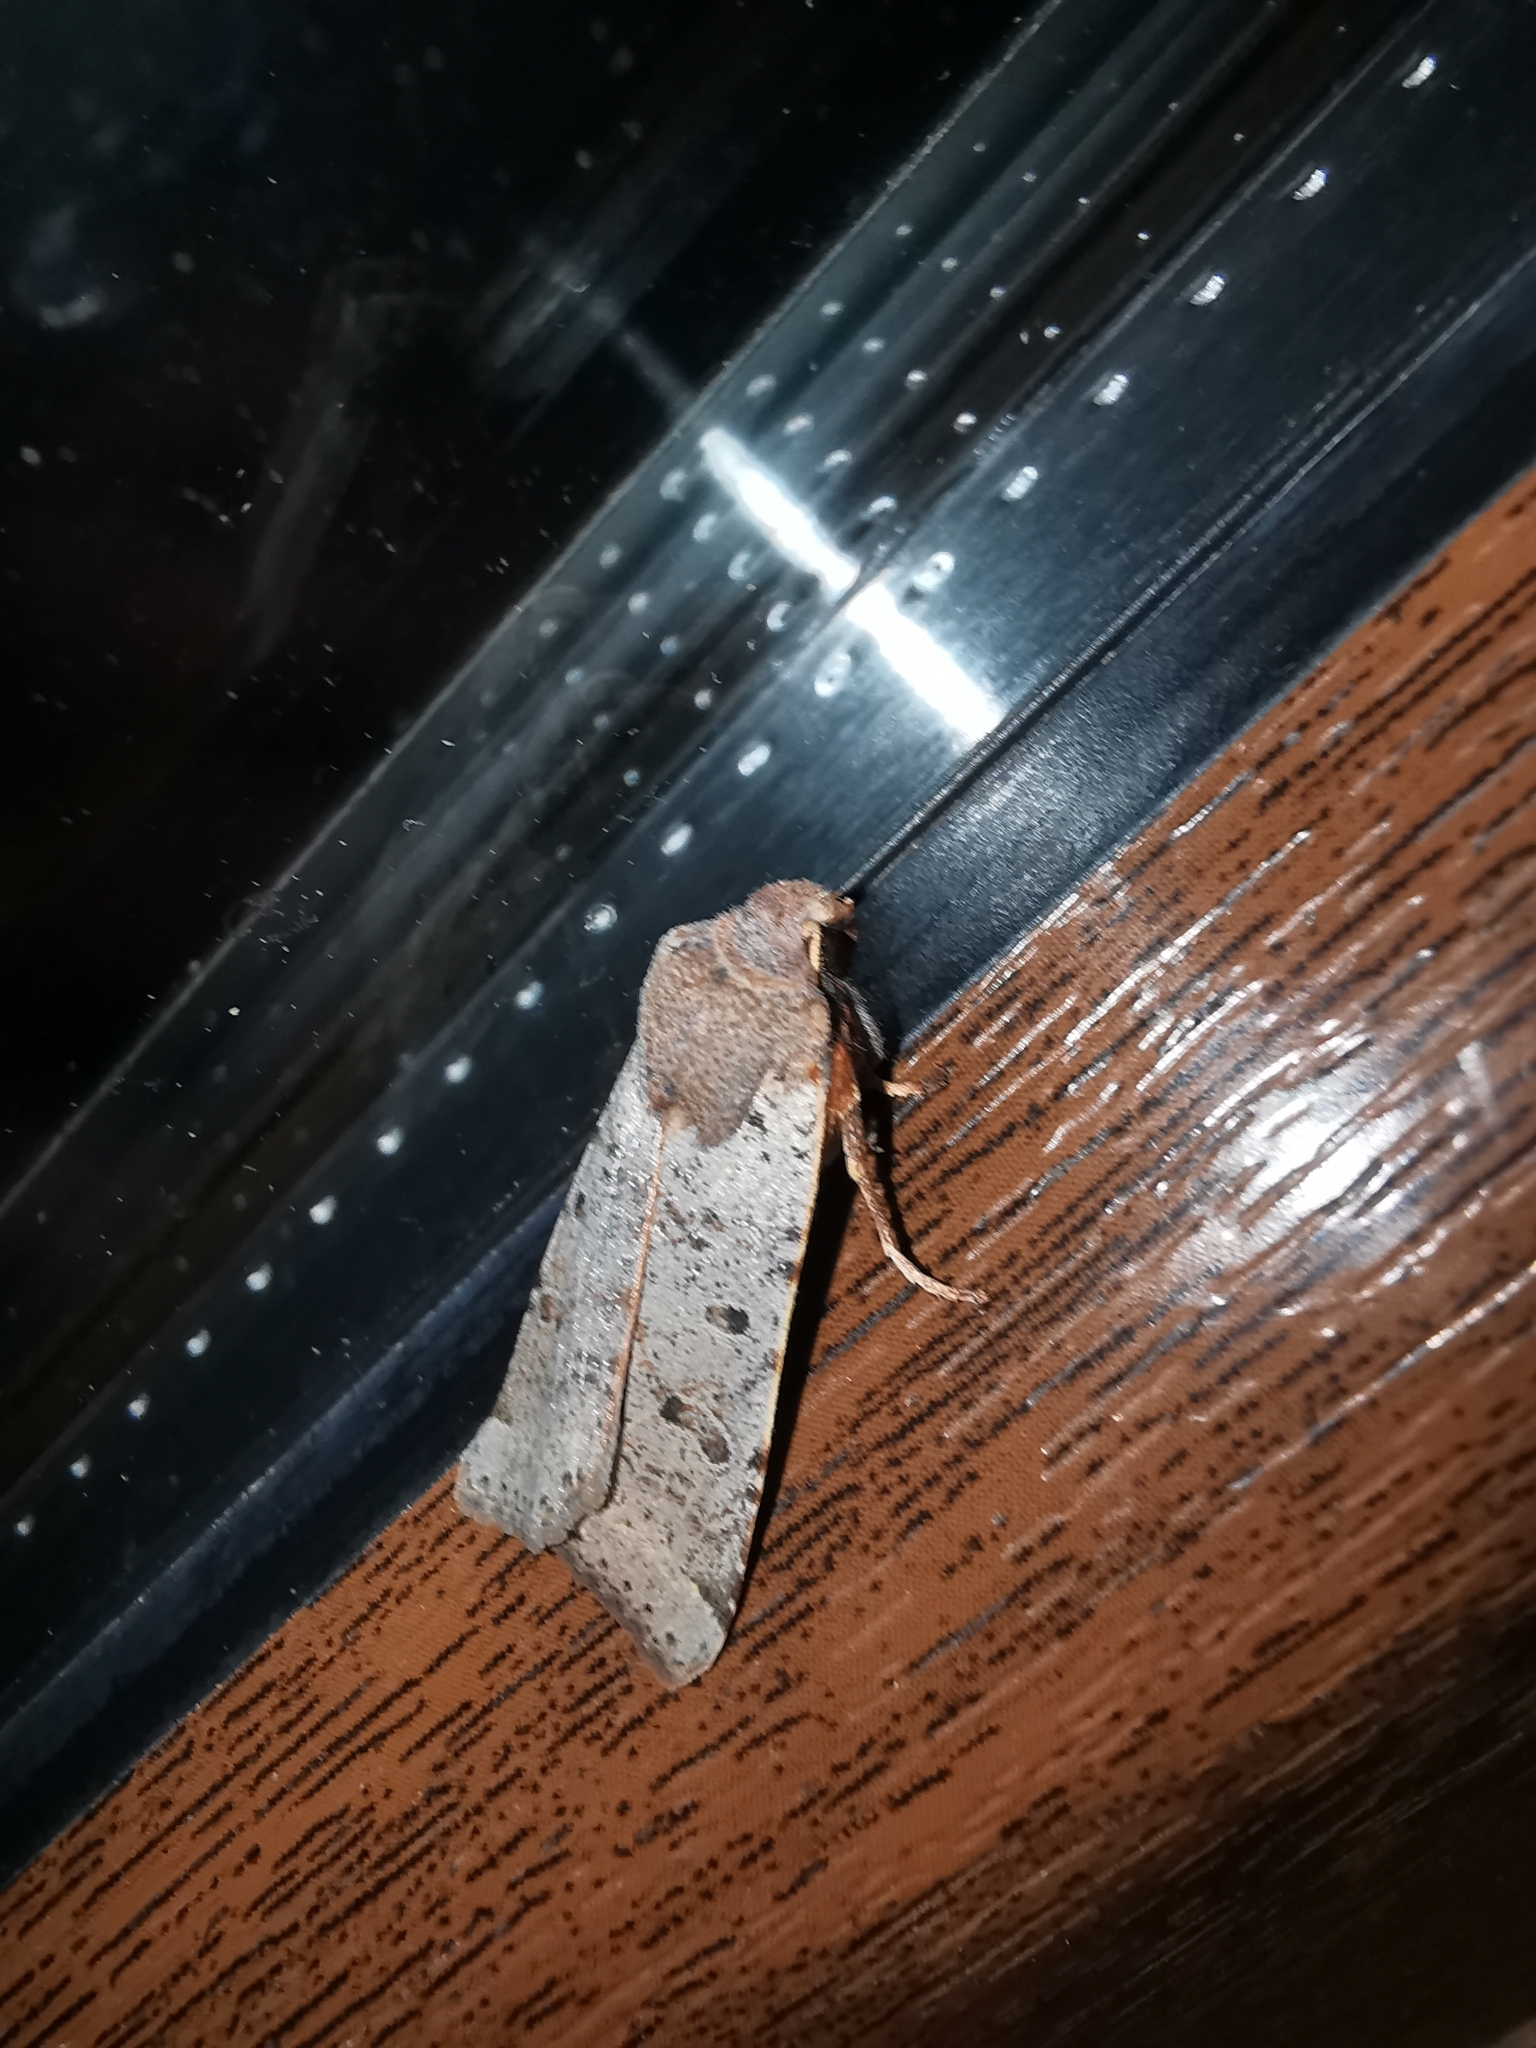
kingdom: Animalia
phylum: Arthropoda
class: Insecta
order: Lepidoptera
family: Noctuidae
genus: Agrochola
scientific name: Agrochola lychnidis
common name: Beaded chestnut
